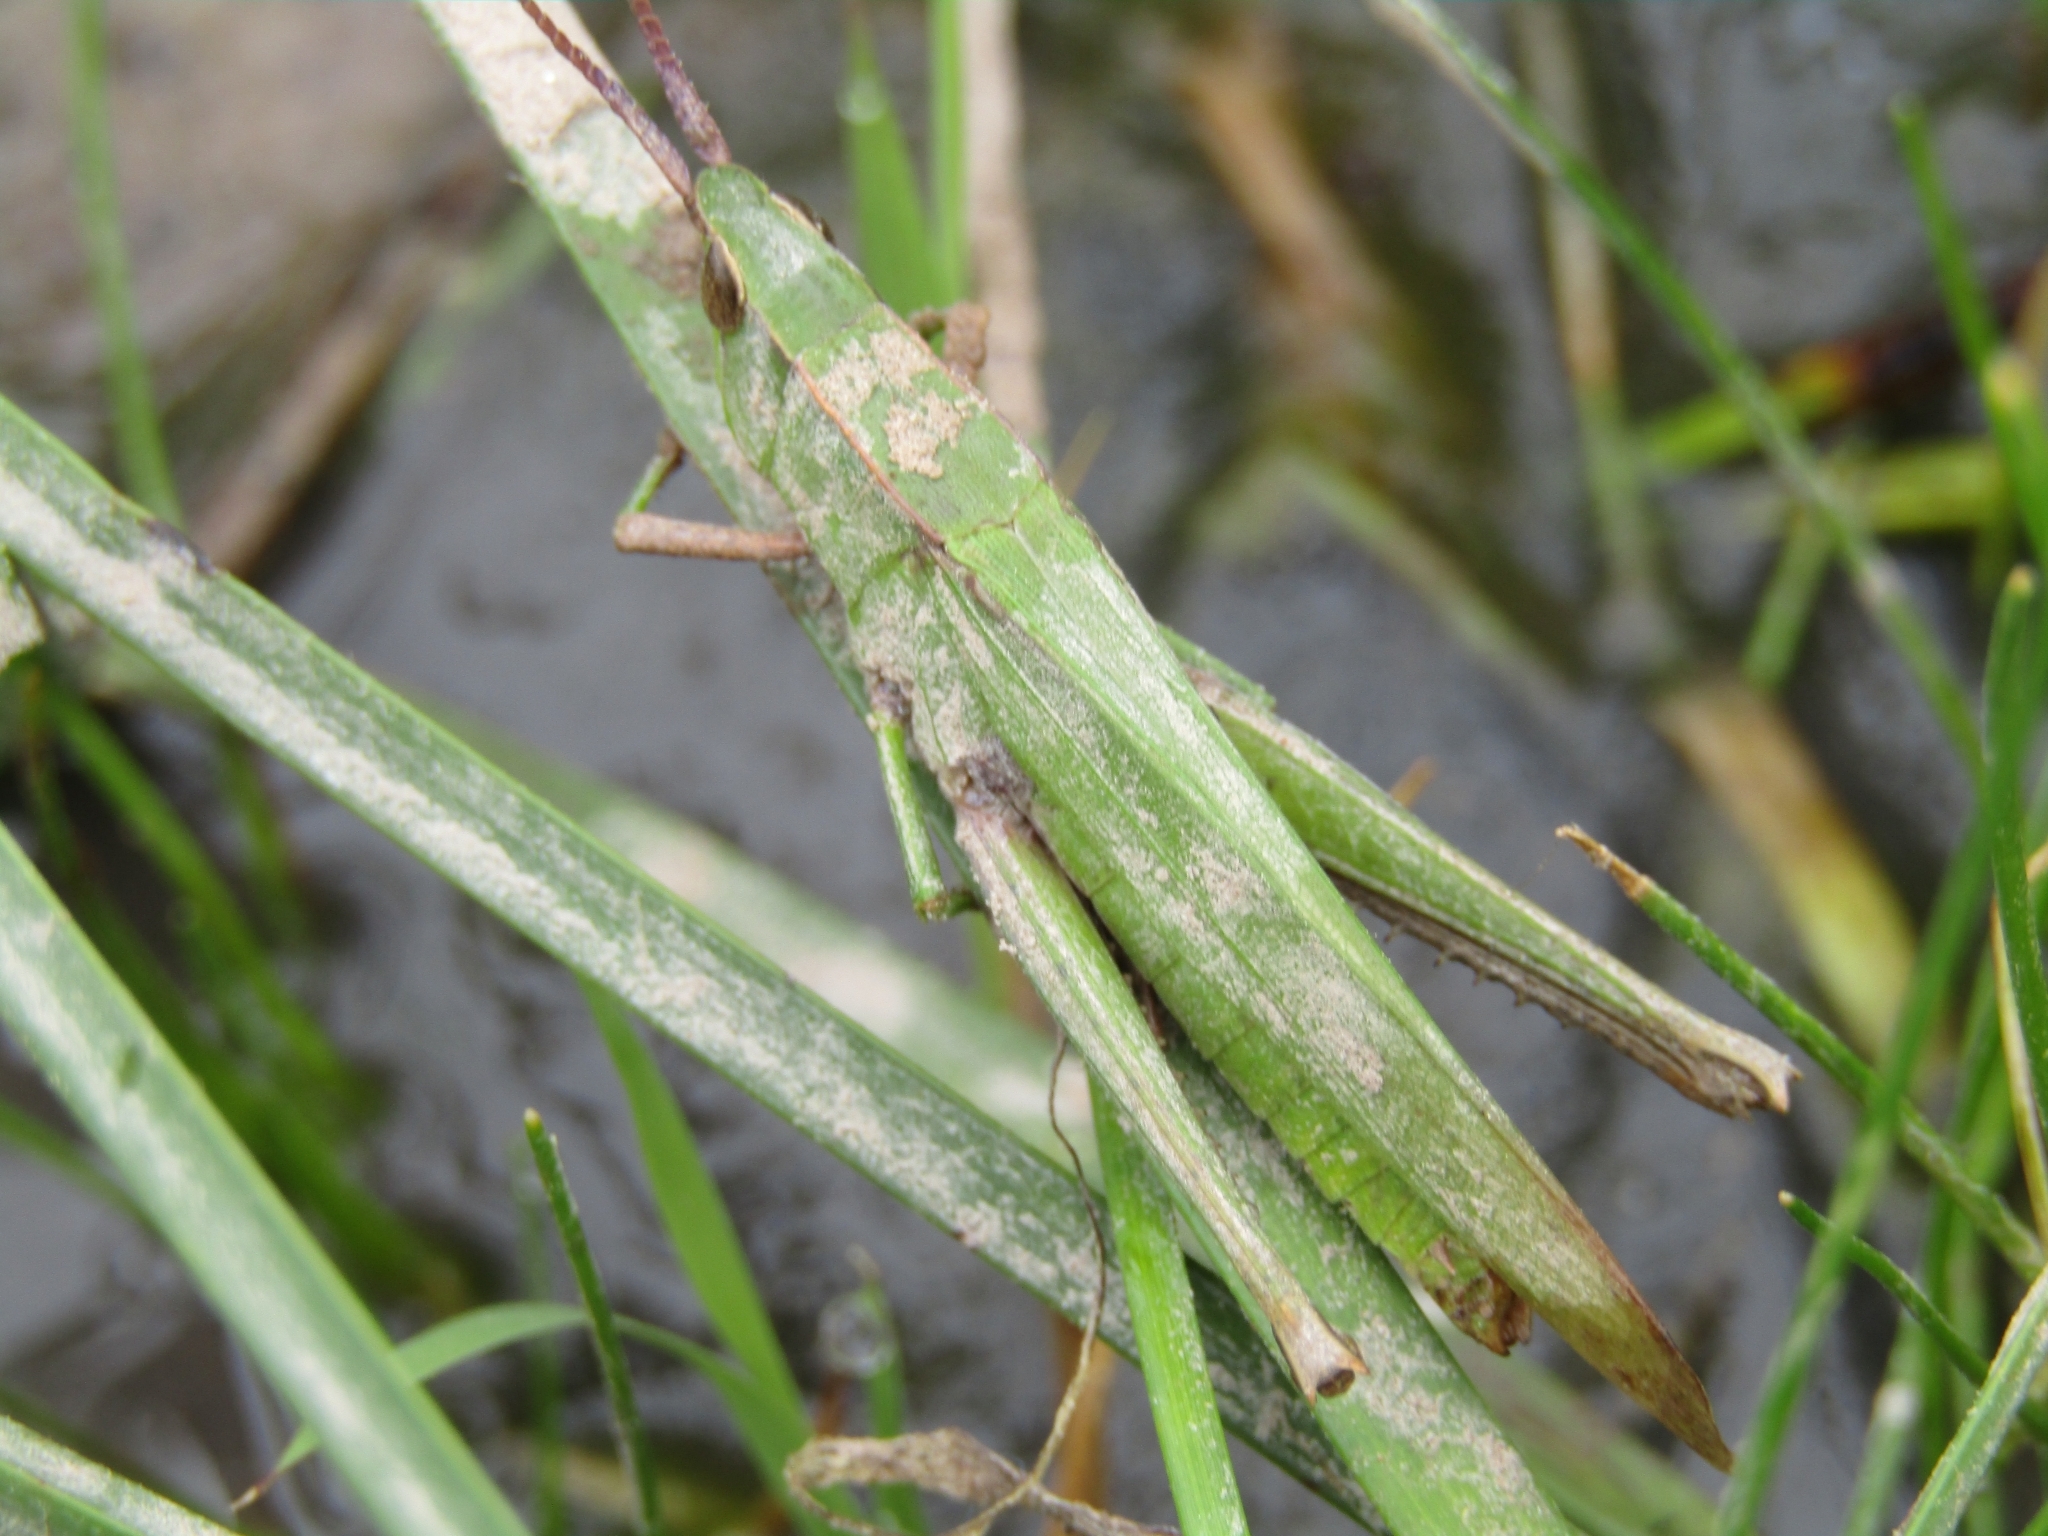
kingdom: Animalia
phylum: Arthropoda
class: Insecta
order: Orthoptera
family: Acrididae
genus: Metaleptea
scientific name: Metaleptea adspersa
